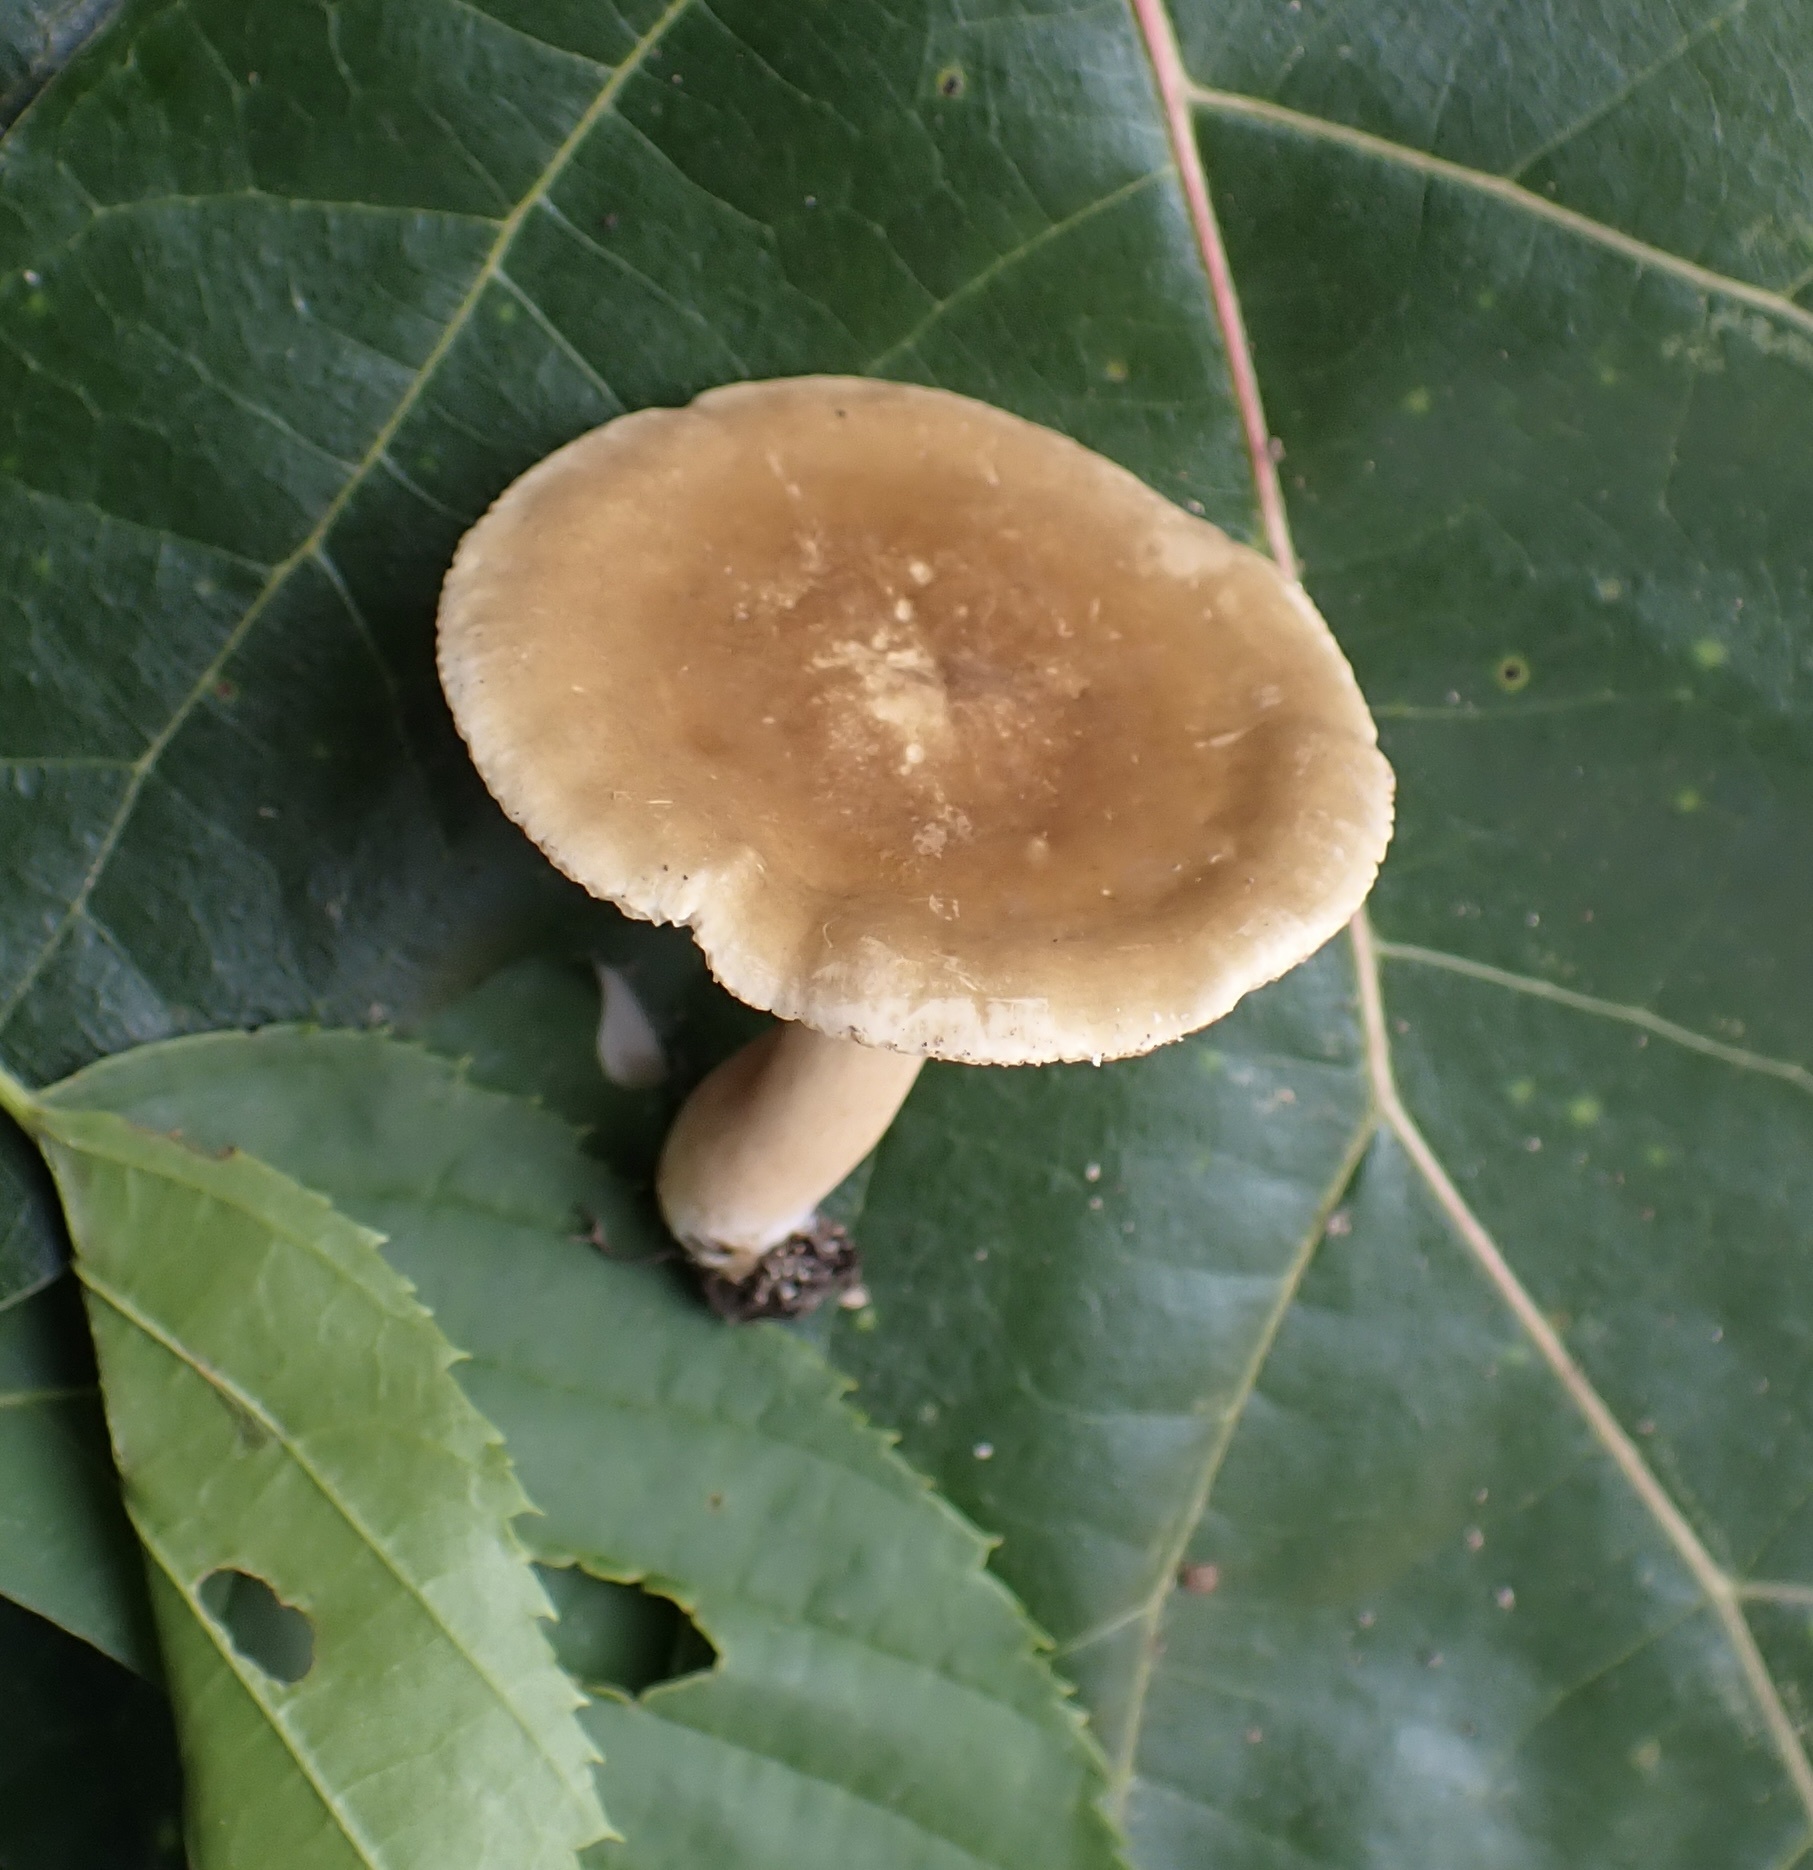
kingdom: Fungi
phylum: Basidiomycota
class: Agaricomycetes
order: Russulales
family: Russulaceae
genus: Lactarius
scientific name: Lactarius fumosus
